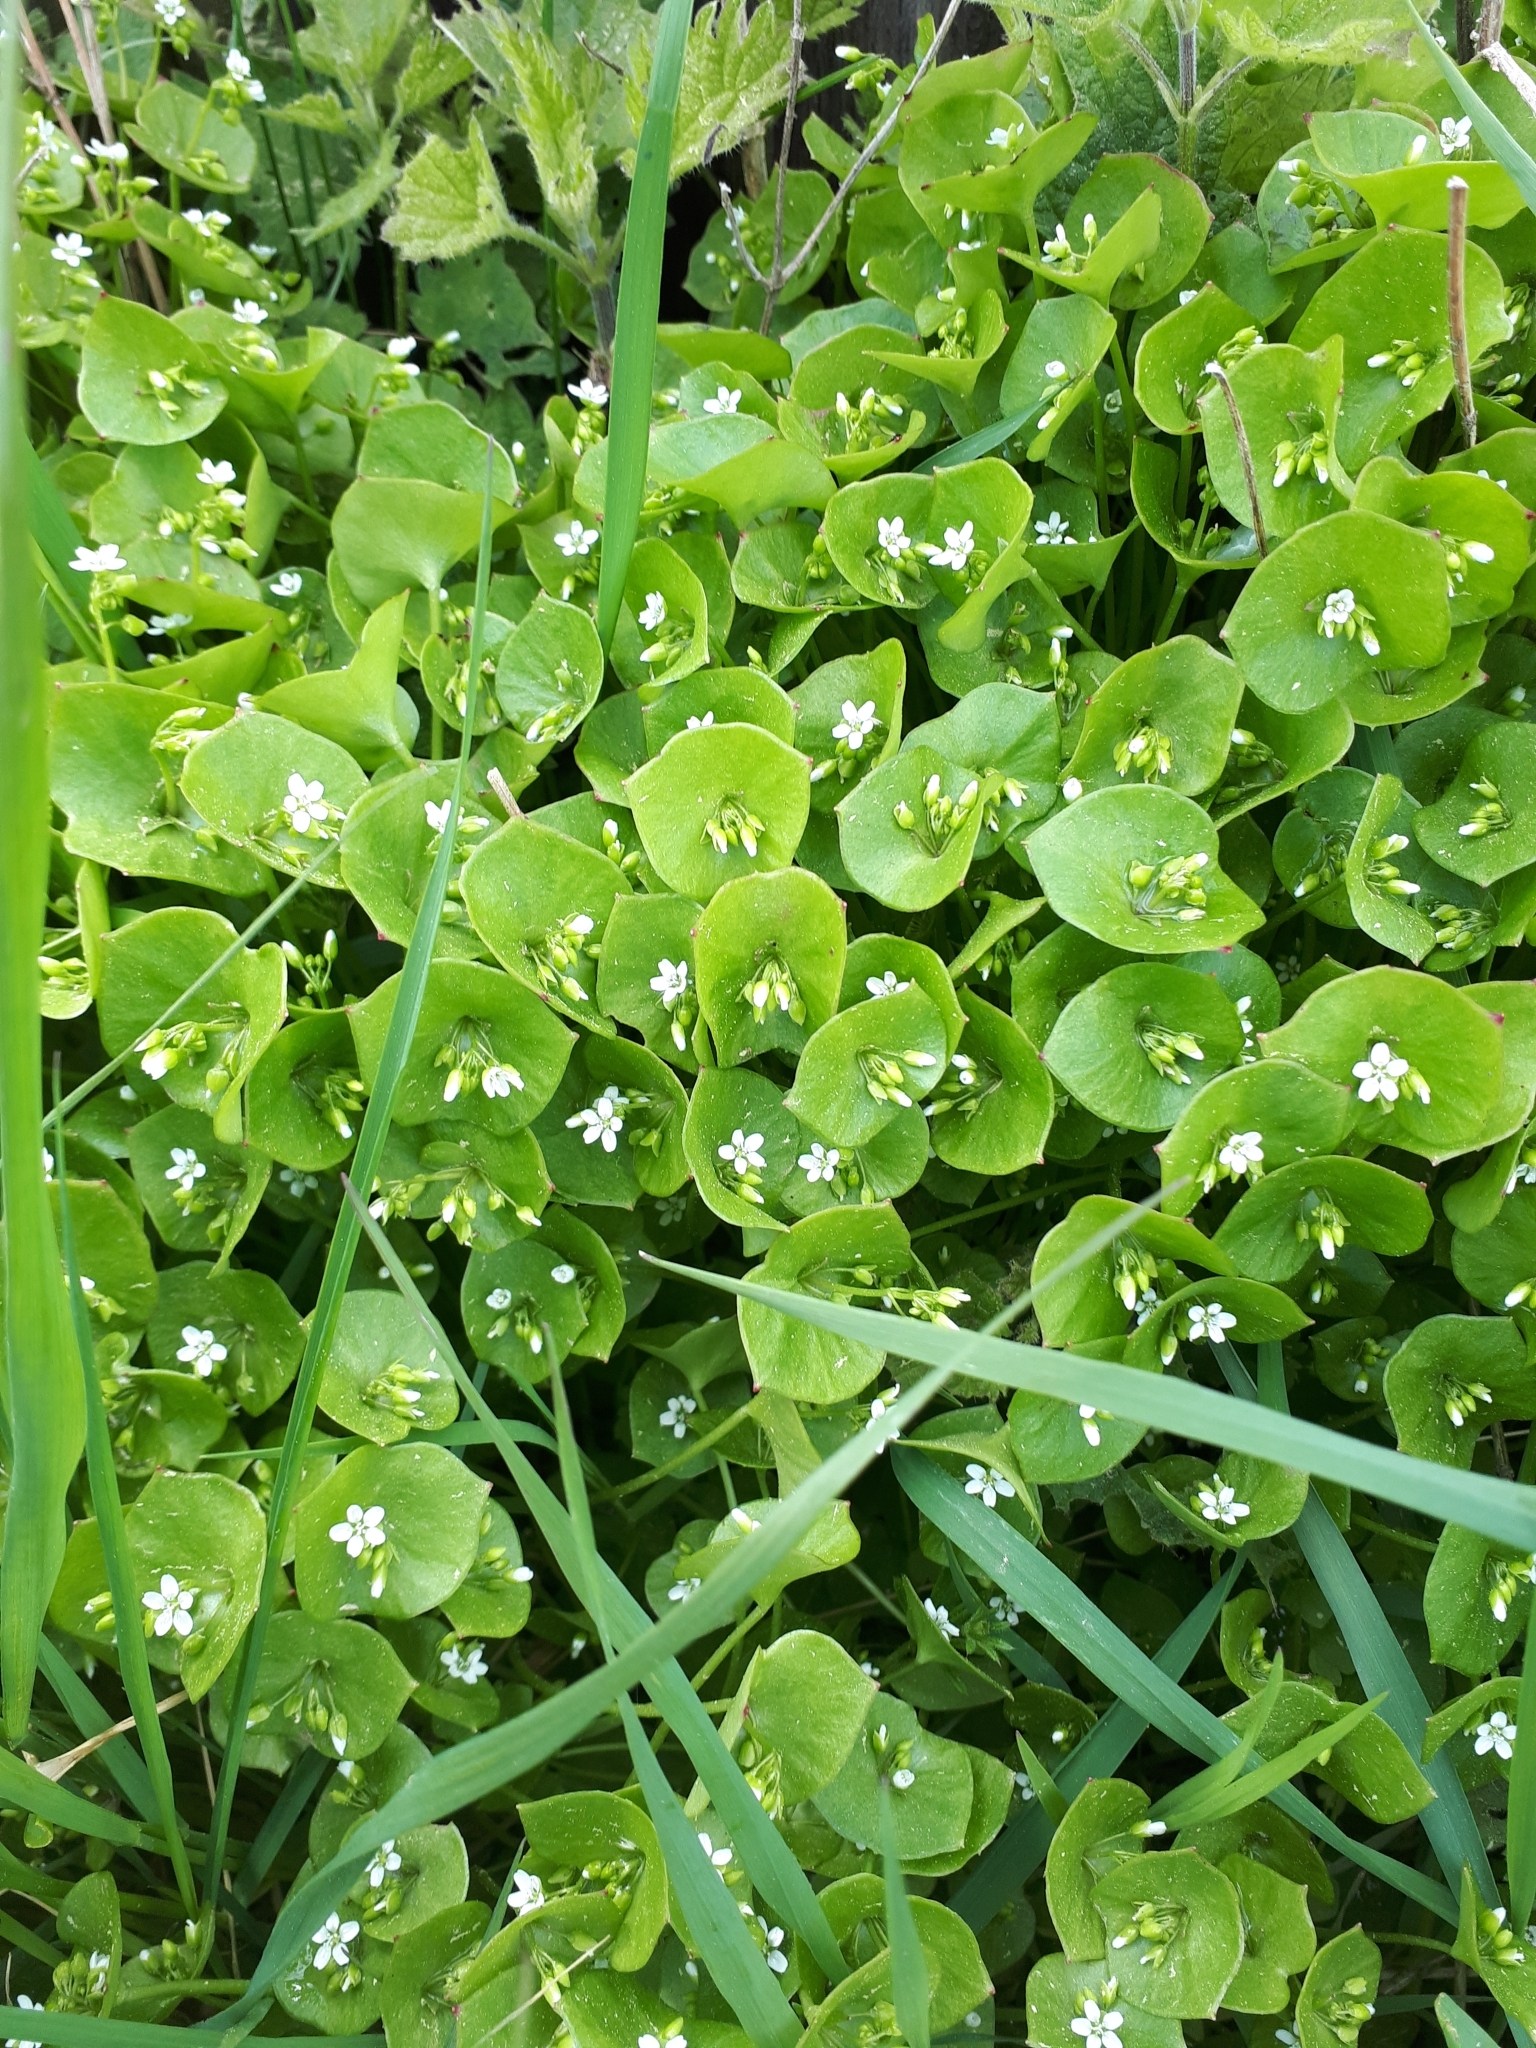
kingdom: Plantae
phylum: Tracheophyta
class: Magnoliopsida
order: Caryophyllales
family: Montiaceae
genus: Claytonia
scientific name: Claytonia perfoliata
